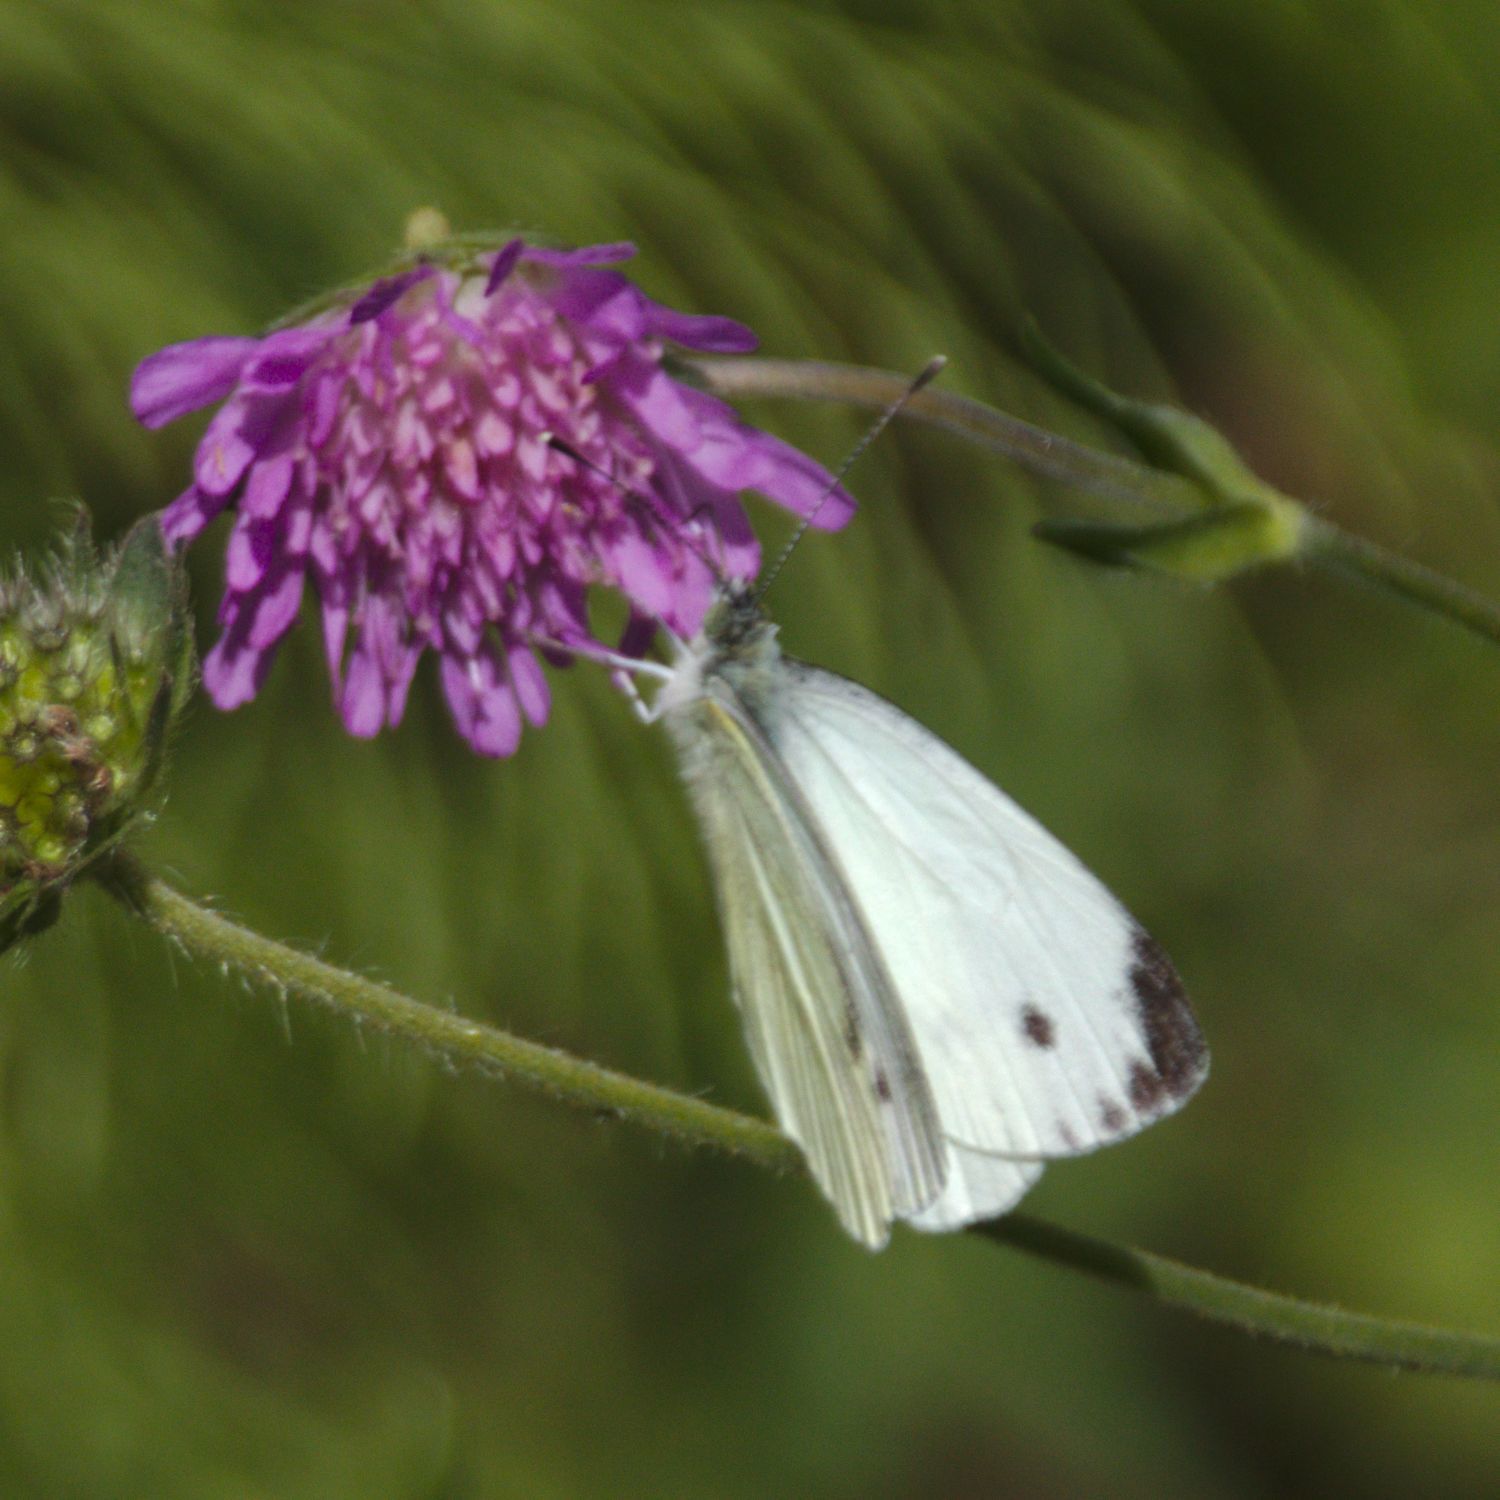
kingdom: Animalia
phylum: Arthropoda
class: Insecta
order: Lepidoptera
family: Pieridae
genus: Pieris
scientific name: Pieris napi
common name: Green-veined white
